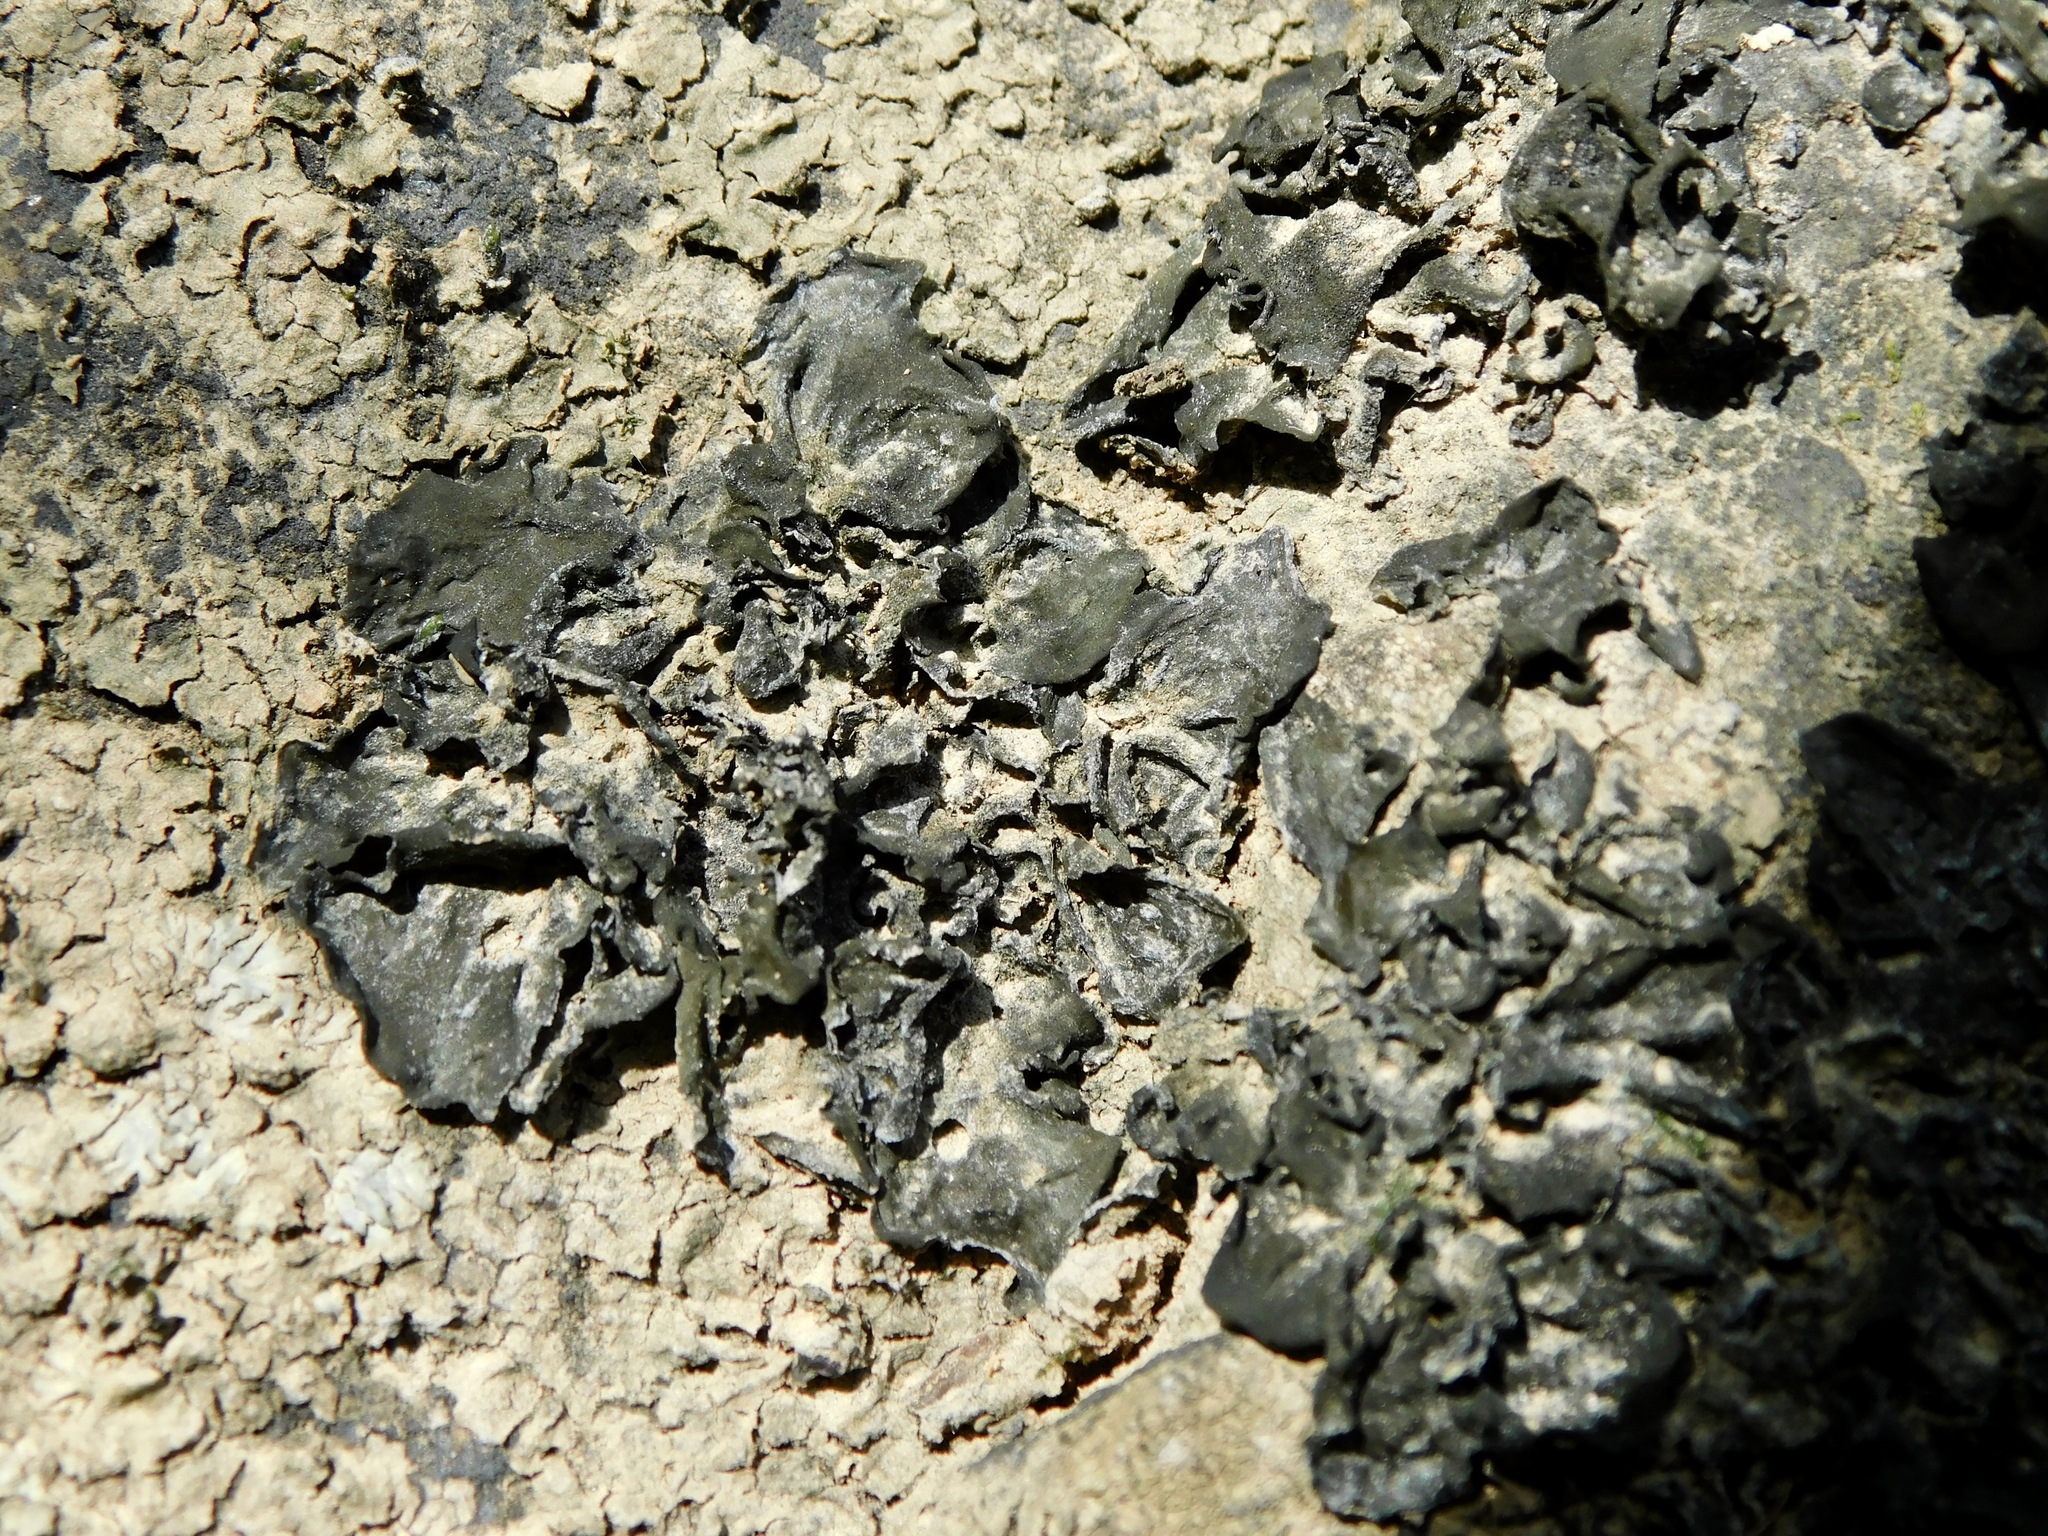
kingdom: Fungi
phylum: Ascomycota
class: Lecanoromycetes
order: Peltigerales
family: Collemataceae
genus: Leptogium
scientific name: Leptogium cyanescens
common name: Blue jellyskin
